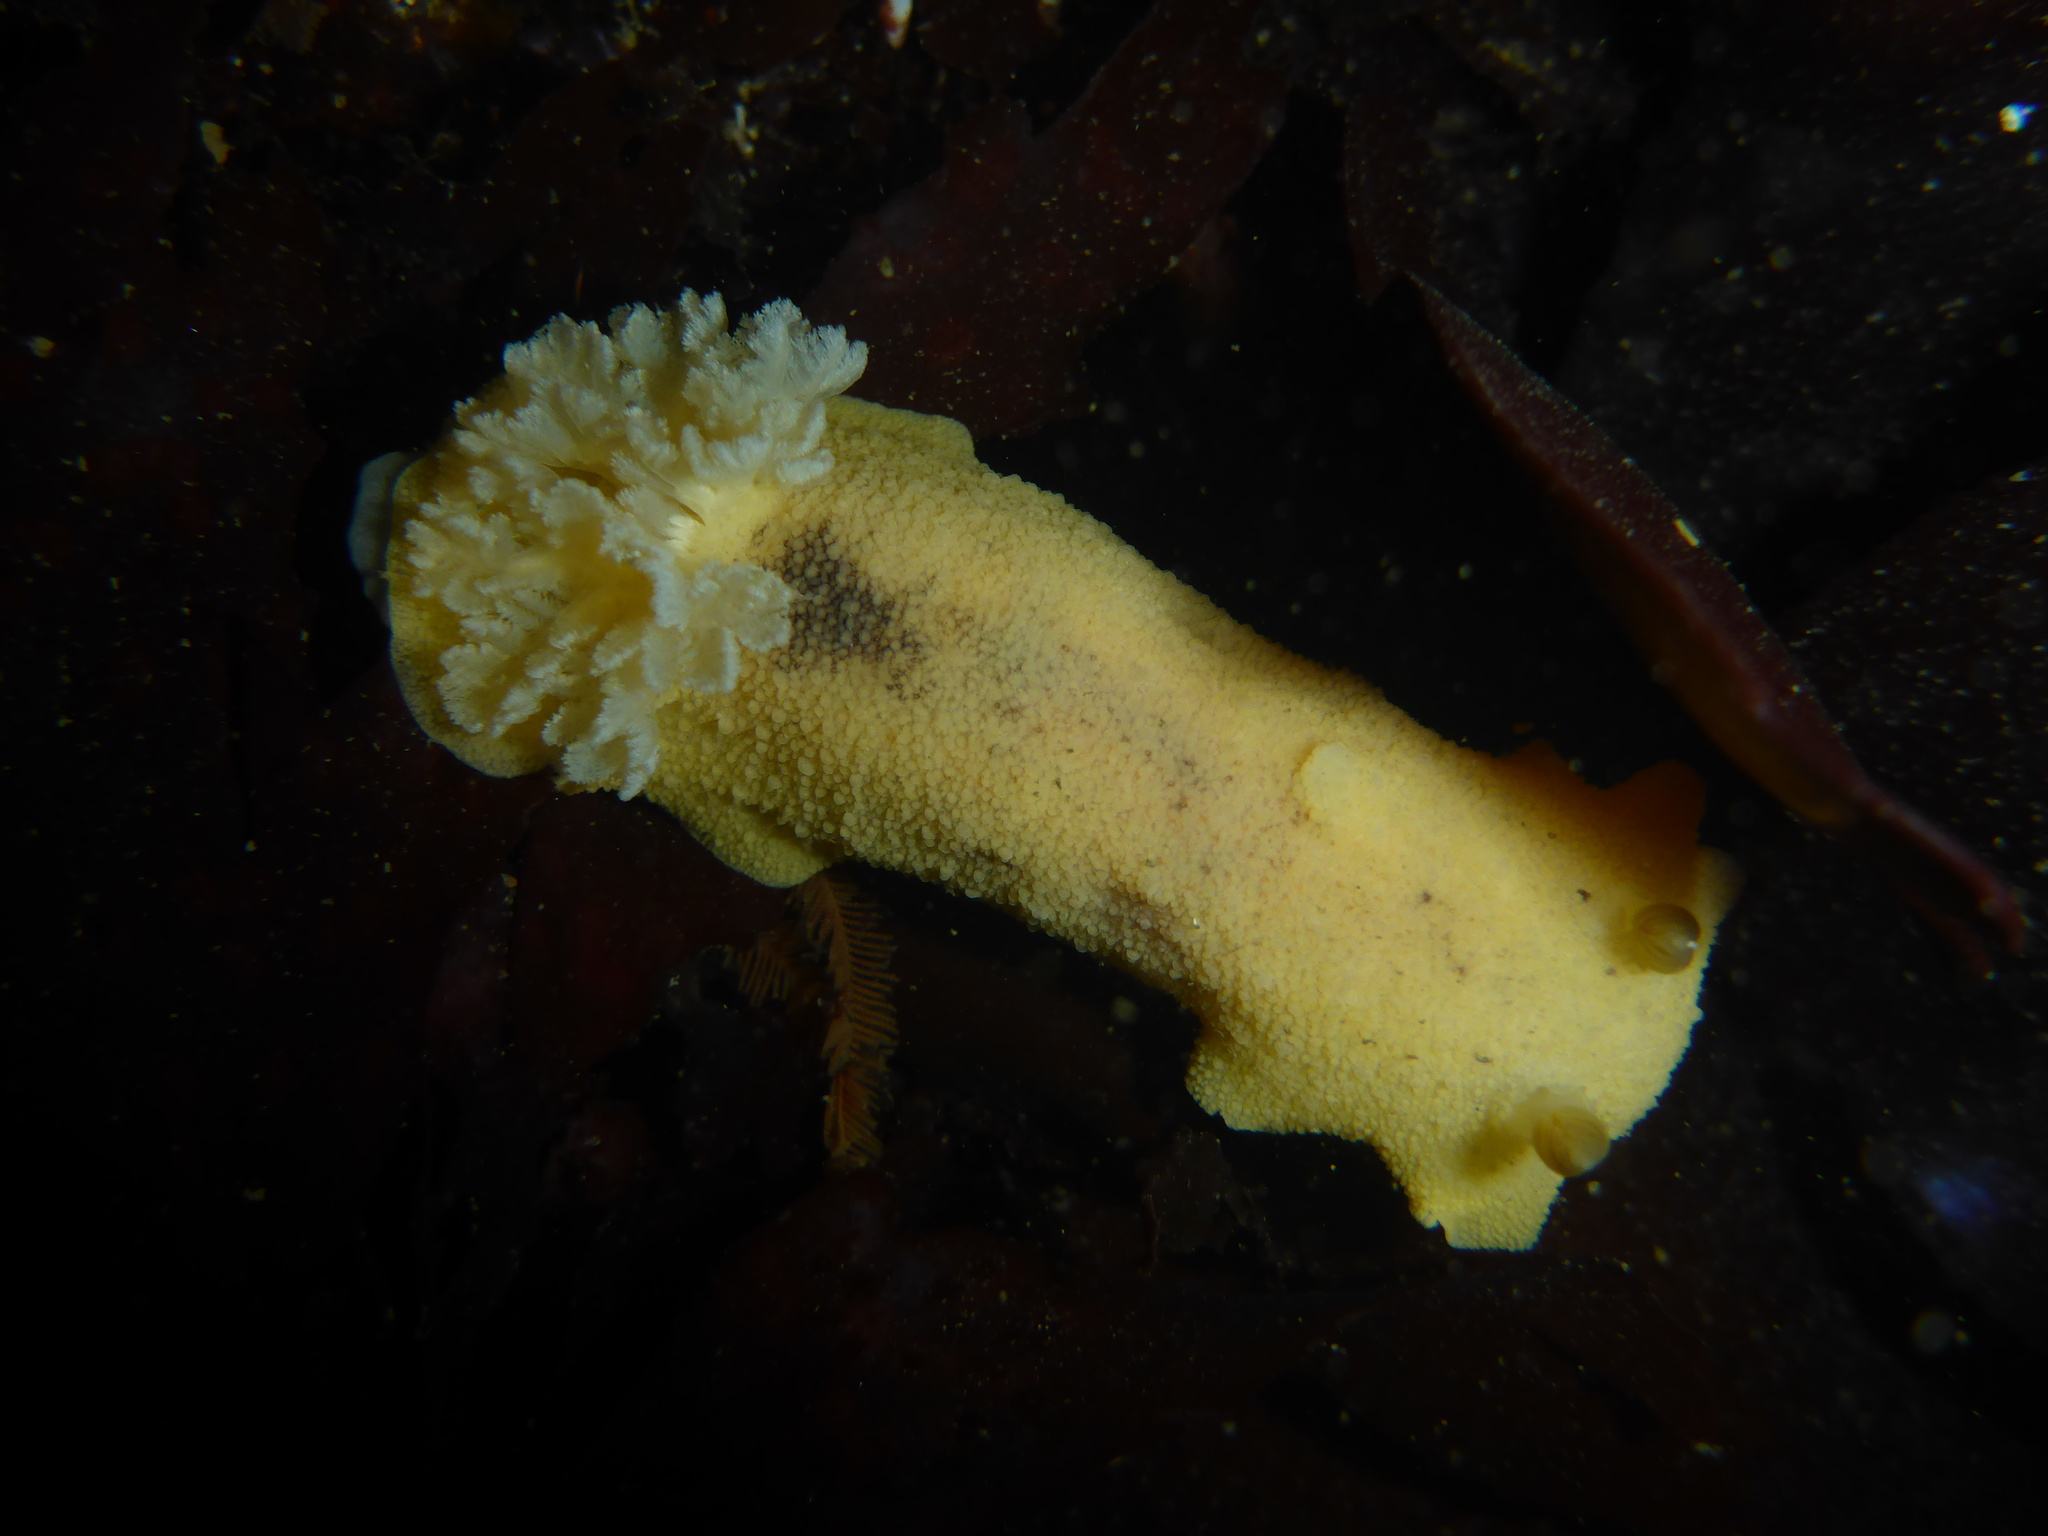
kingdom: Animalia
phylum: Mollusca
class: Gastropoda
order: Nudibranchia
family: Discodorididae
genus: Geitodoris
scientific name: Geitodoris heathi
